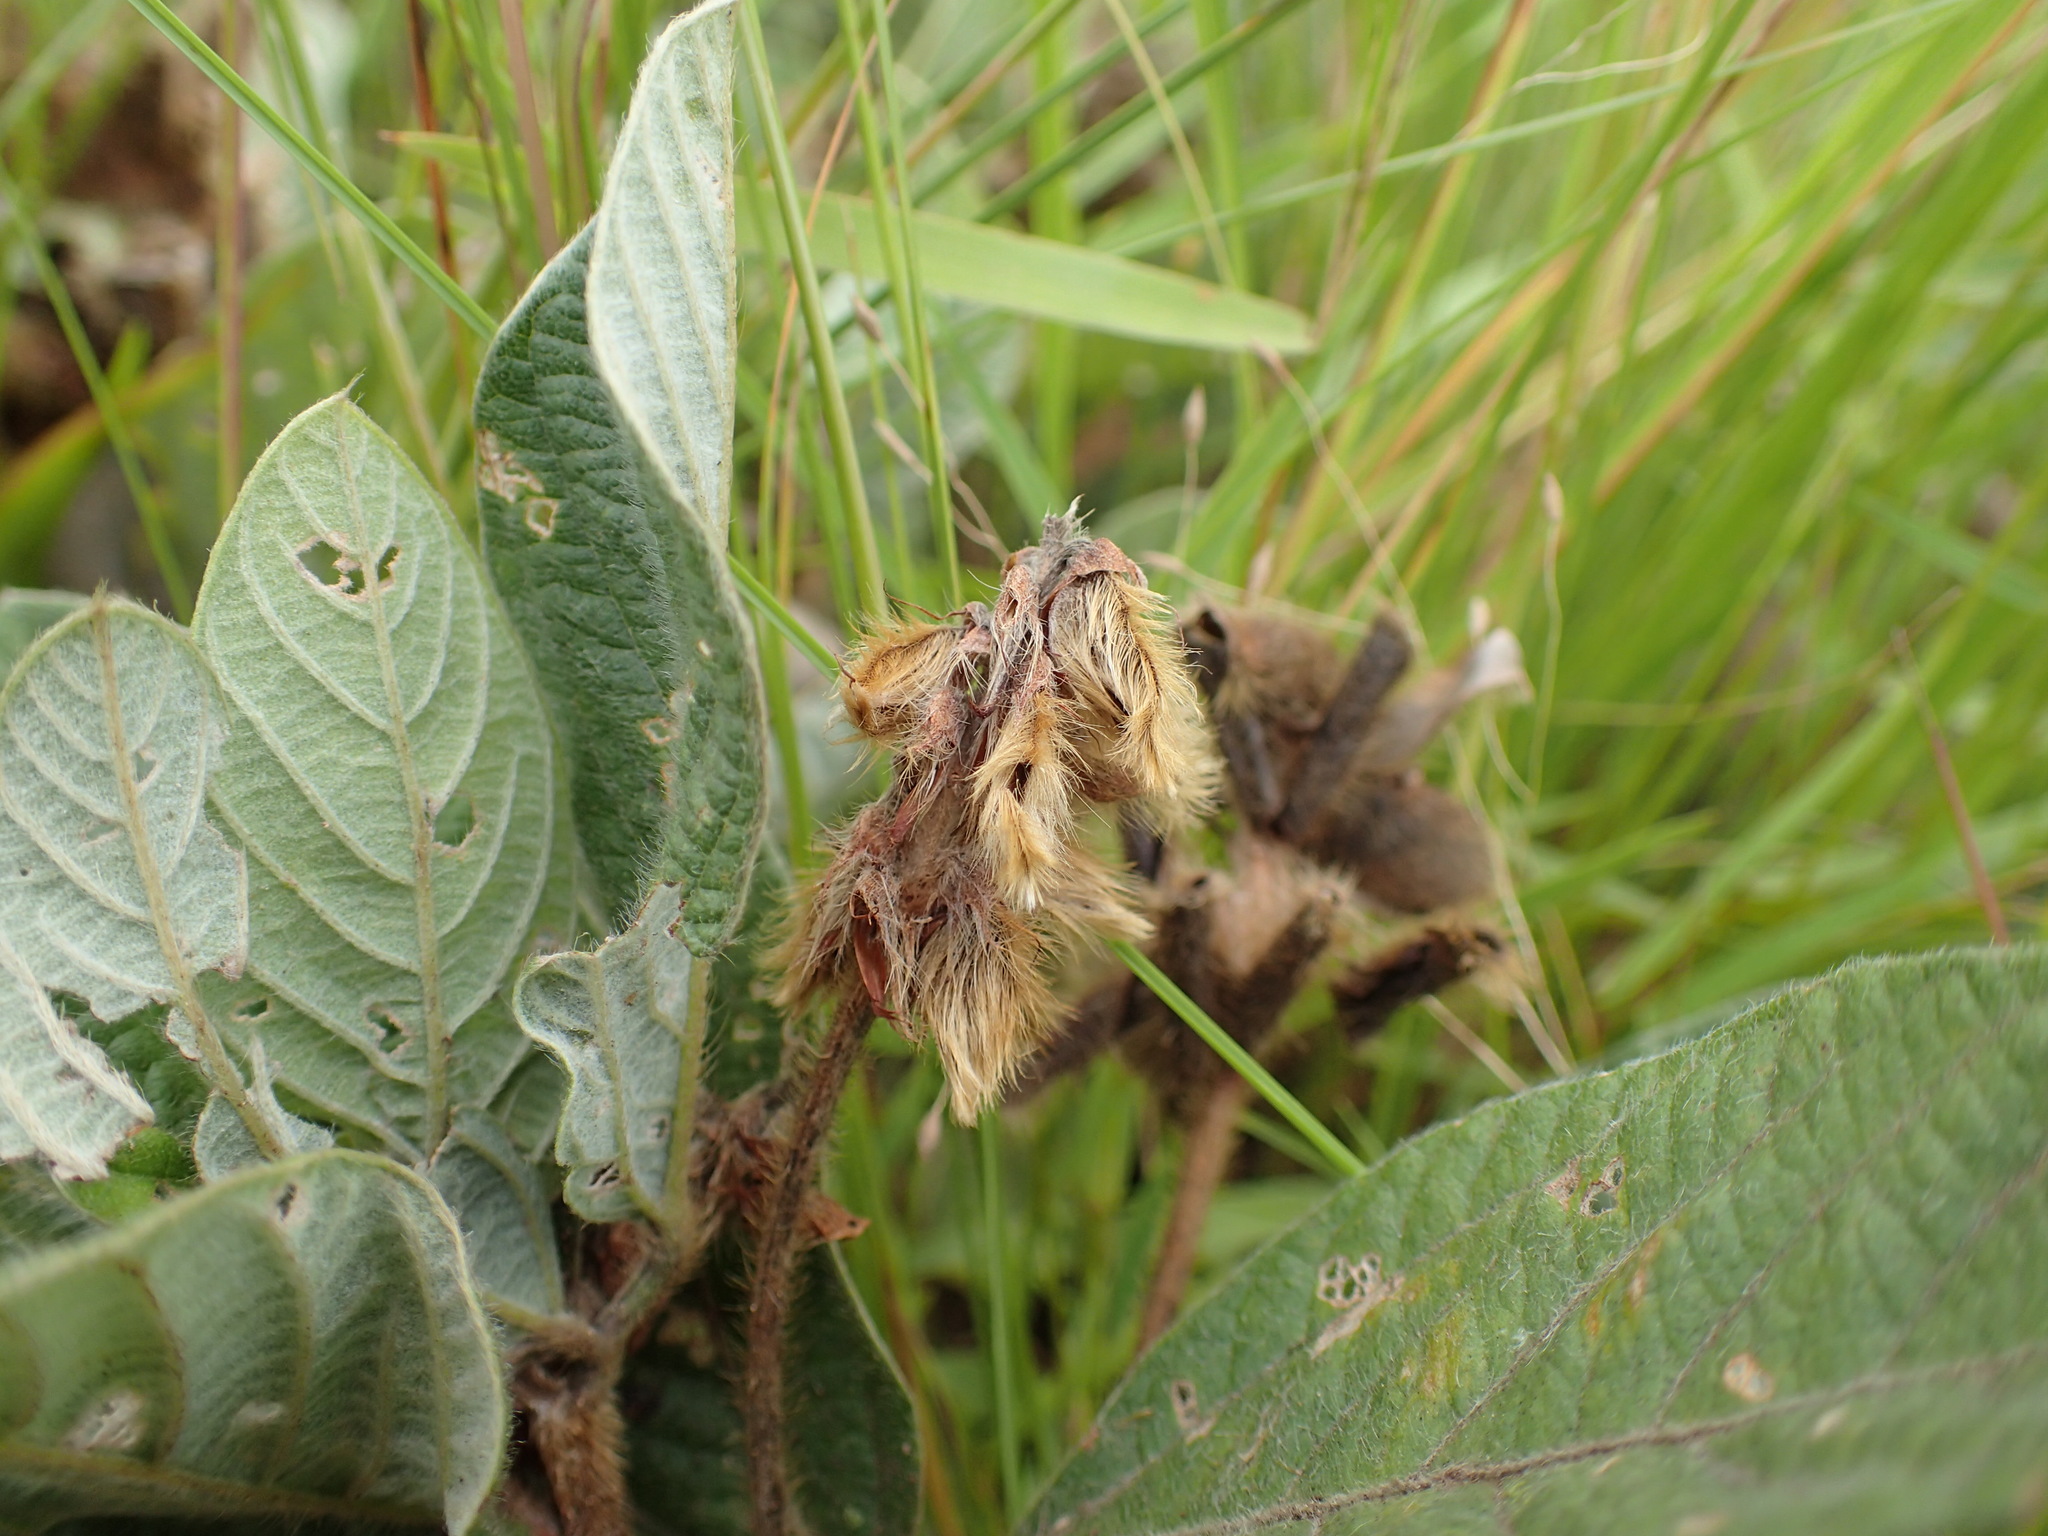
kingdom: Plantae
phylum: Tracheophyta
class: Magnoliopsida
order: Fabales
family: Fabaceae
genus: Eriosema
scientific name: Eriosema preptum
